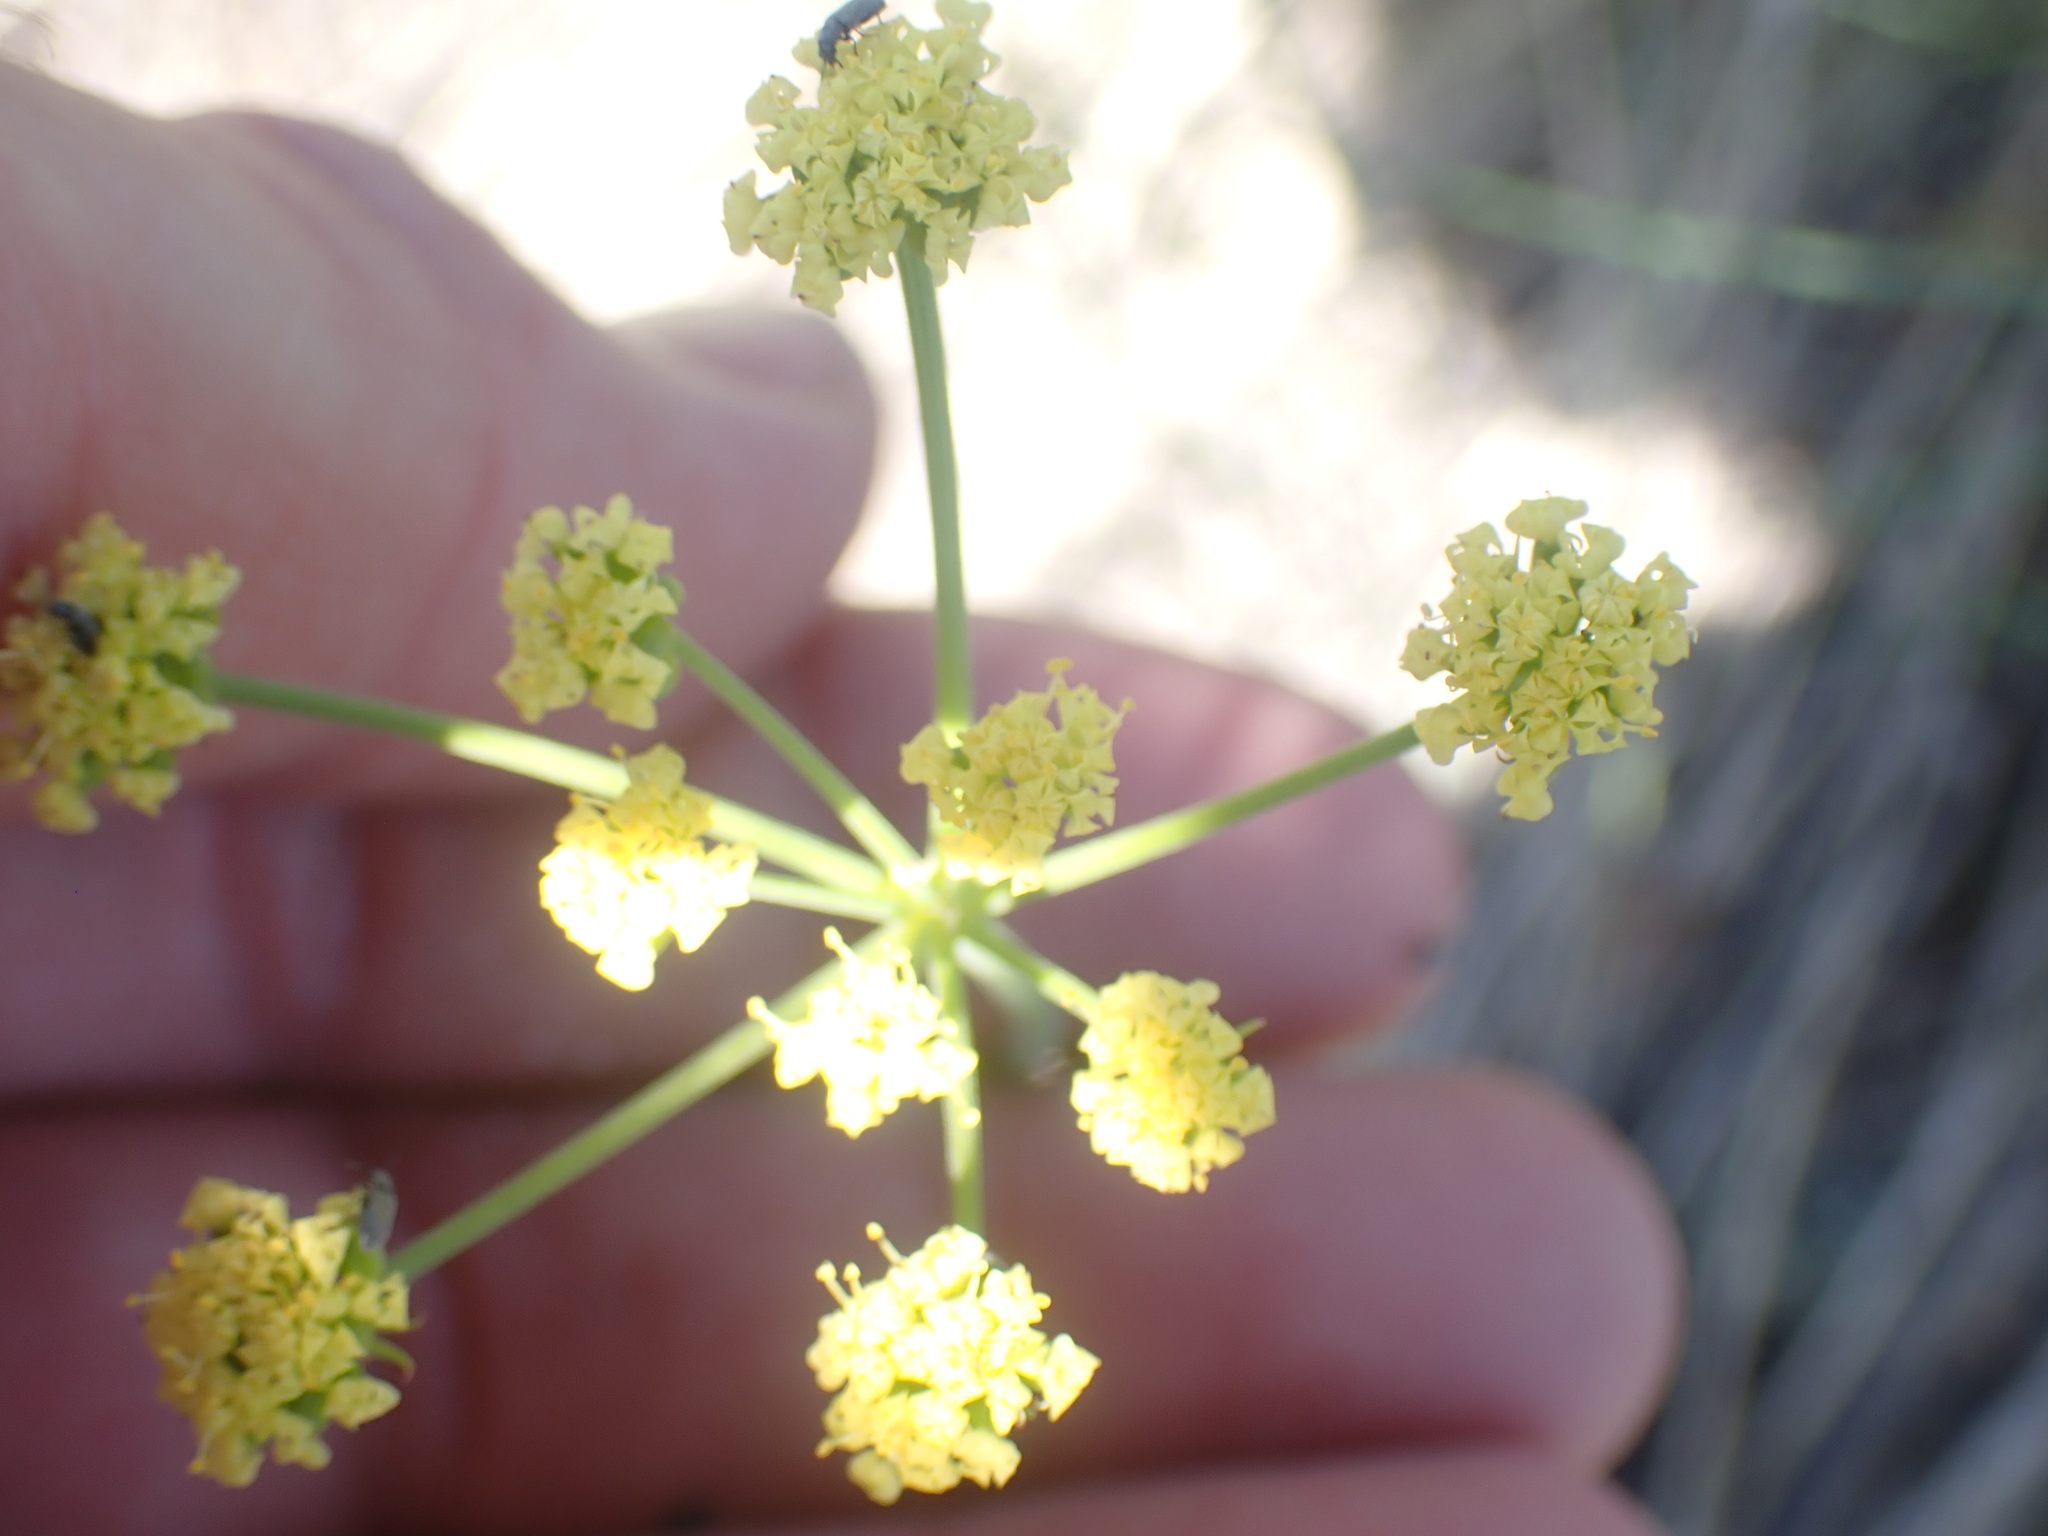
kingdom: Plantae
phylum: Tracheophyta
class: Magnoliopsida
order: Apiales
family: Apiaceae
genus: Lomatium
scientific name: Lomatium simplex
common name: Great basin biscuitroot
